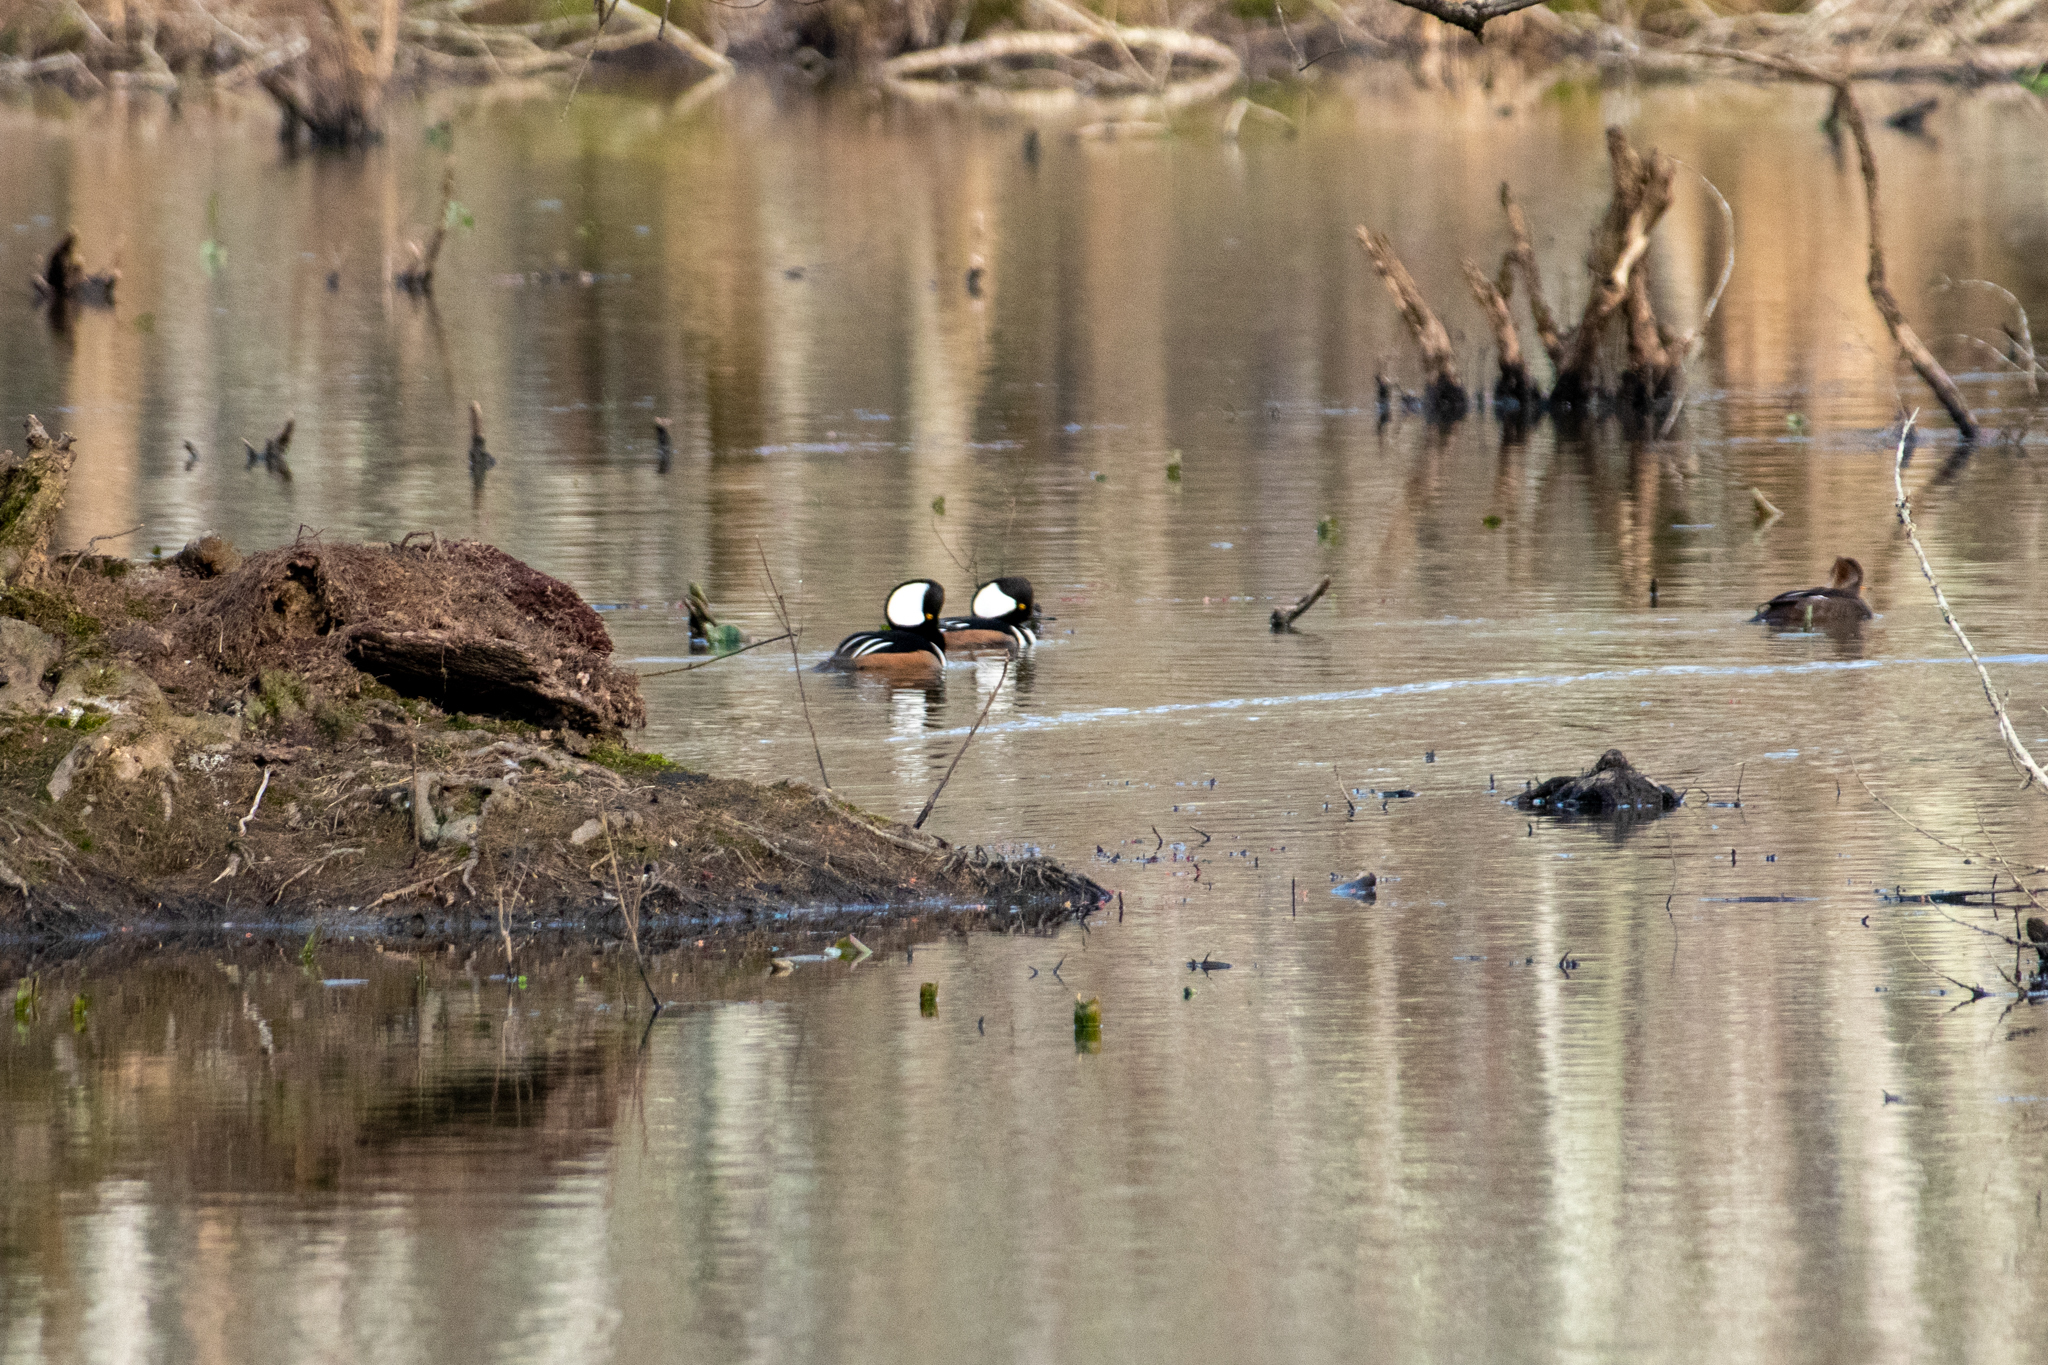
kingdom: Animalia
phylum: Chordata
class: Aves
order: Anseriformes
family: Anatidae
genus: Lophodytes
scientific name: Lophodytes cucullatus
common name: Hooded merganser
